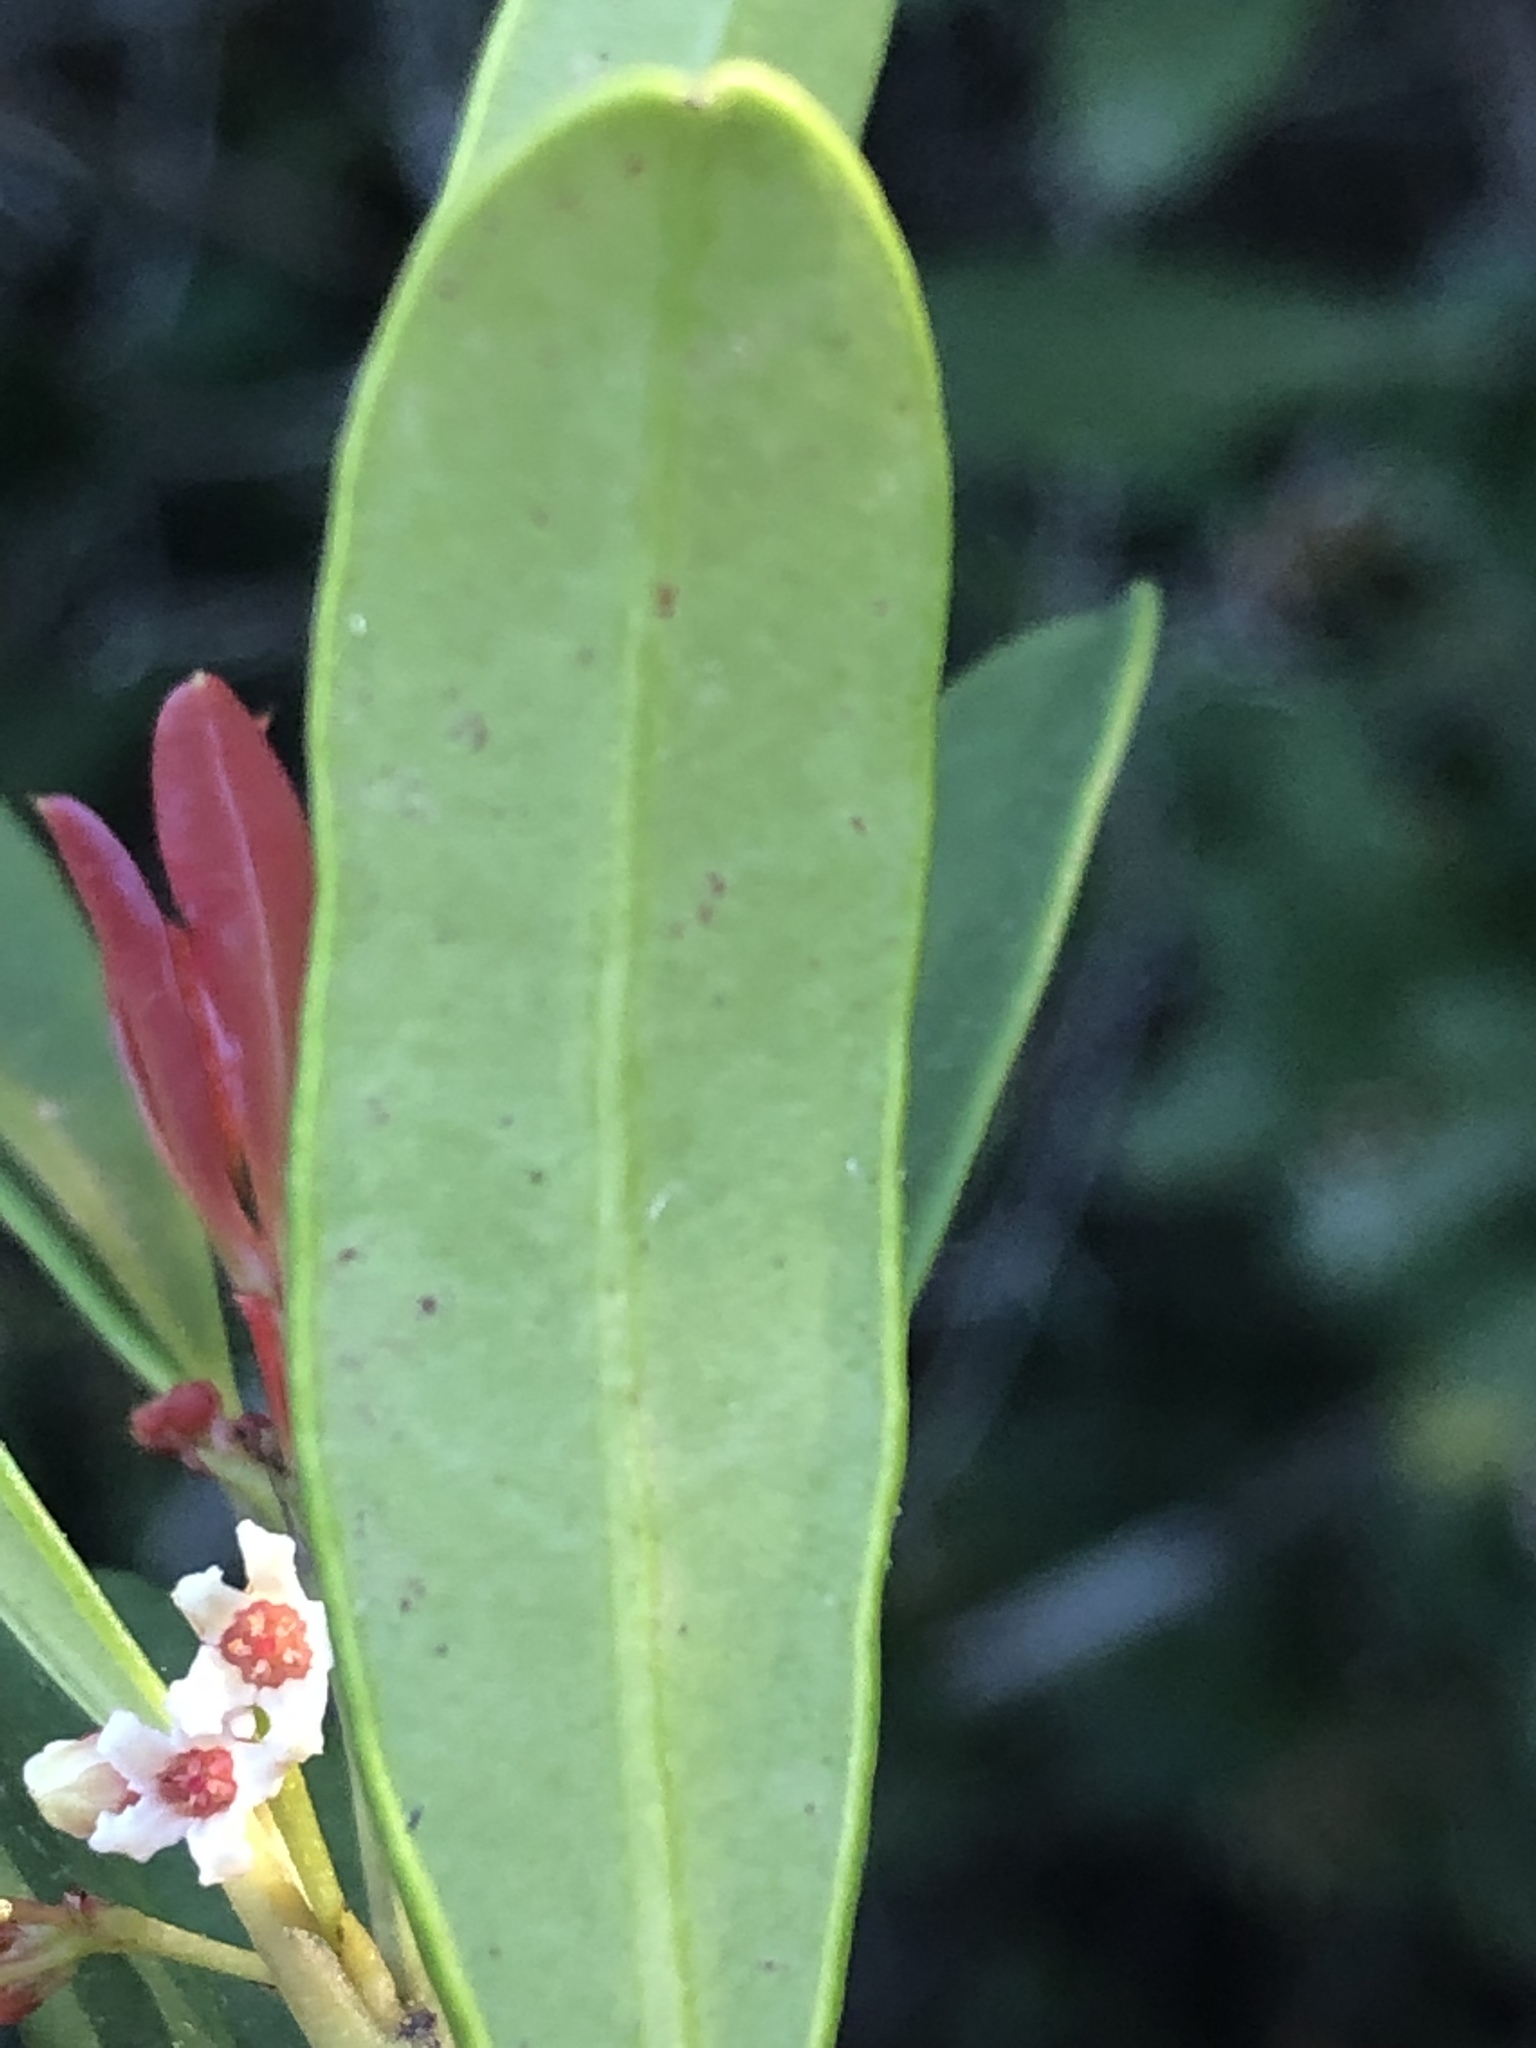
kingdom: Plantae
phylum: Tracheophyta
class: Magnoliopsida
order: Celastrales
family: Celastraceae
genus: Cassine
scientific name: Cassine parvifolia
